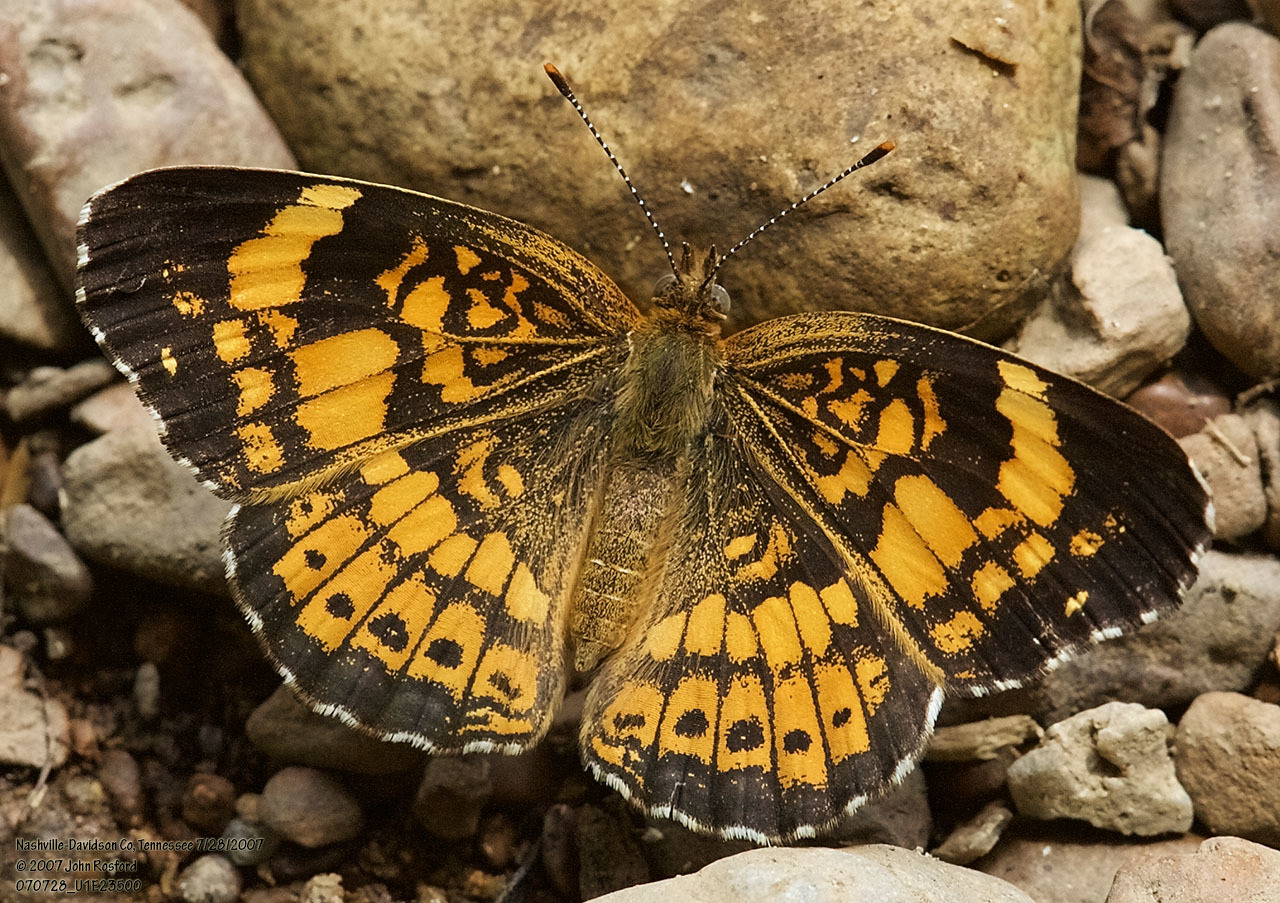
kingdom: Animalia
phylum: Arthropoda
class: Insecta
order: Lepidoptera
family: Nymphalidae
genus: Chlosyne
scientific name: Chlosyne nycteis
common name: Silvery checkerspot
